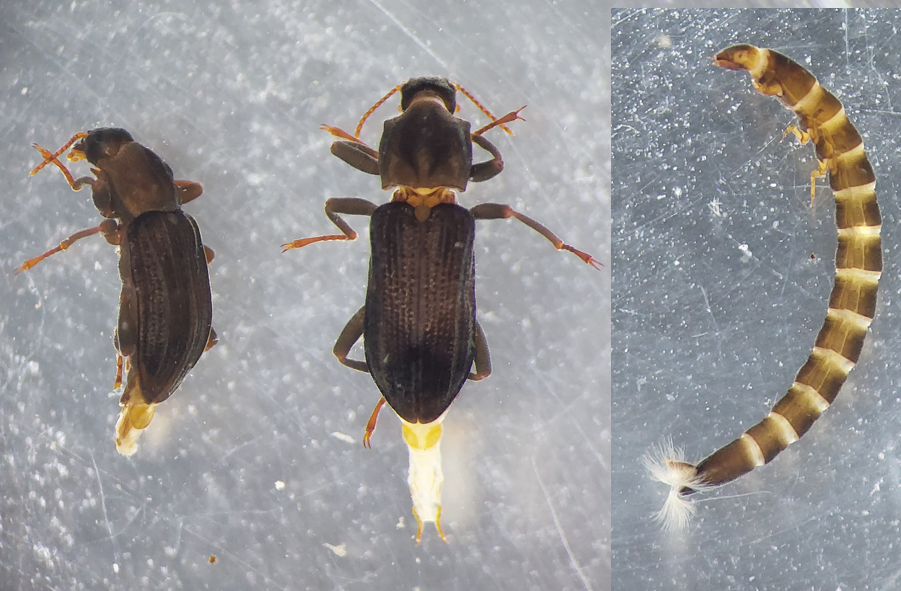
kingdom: Animalia
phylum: Arthropoda
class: Insecta
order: Coleoptera
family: Elmidae
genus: Stenelmis
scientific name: Stenelmis canaliculata
